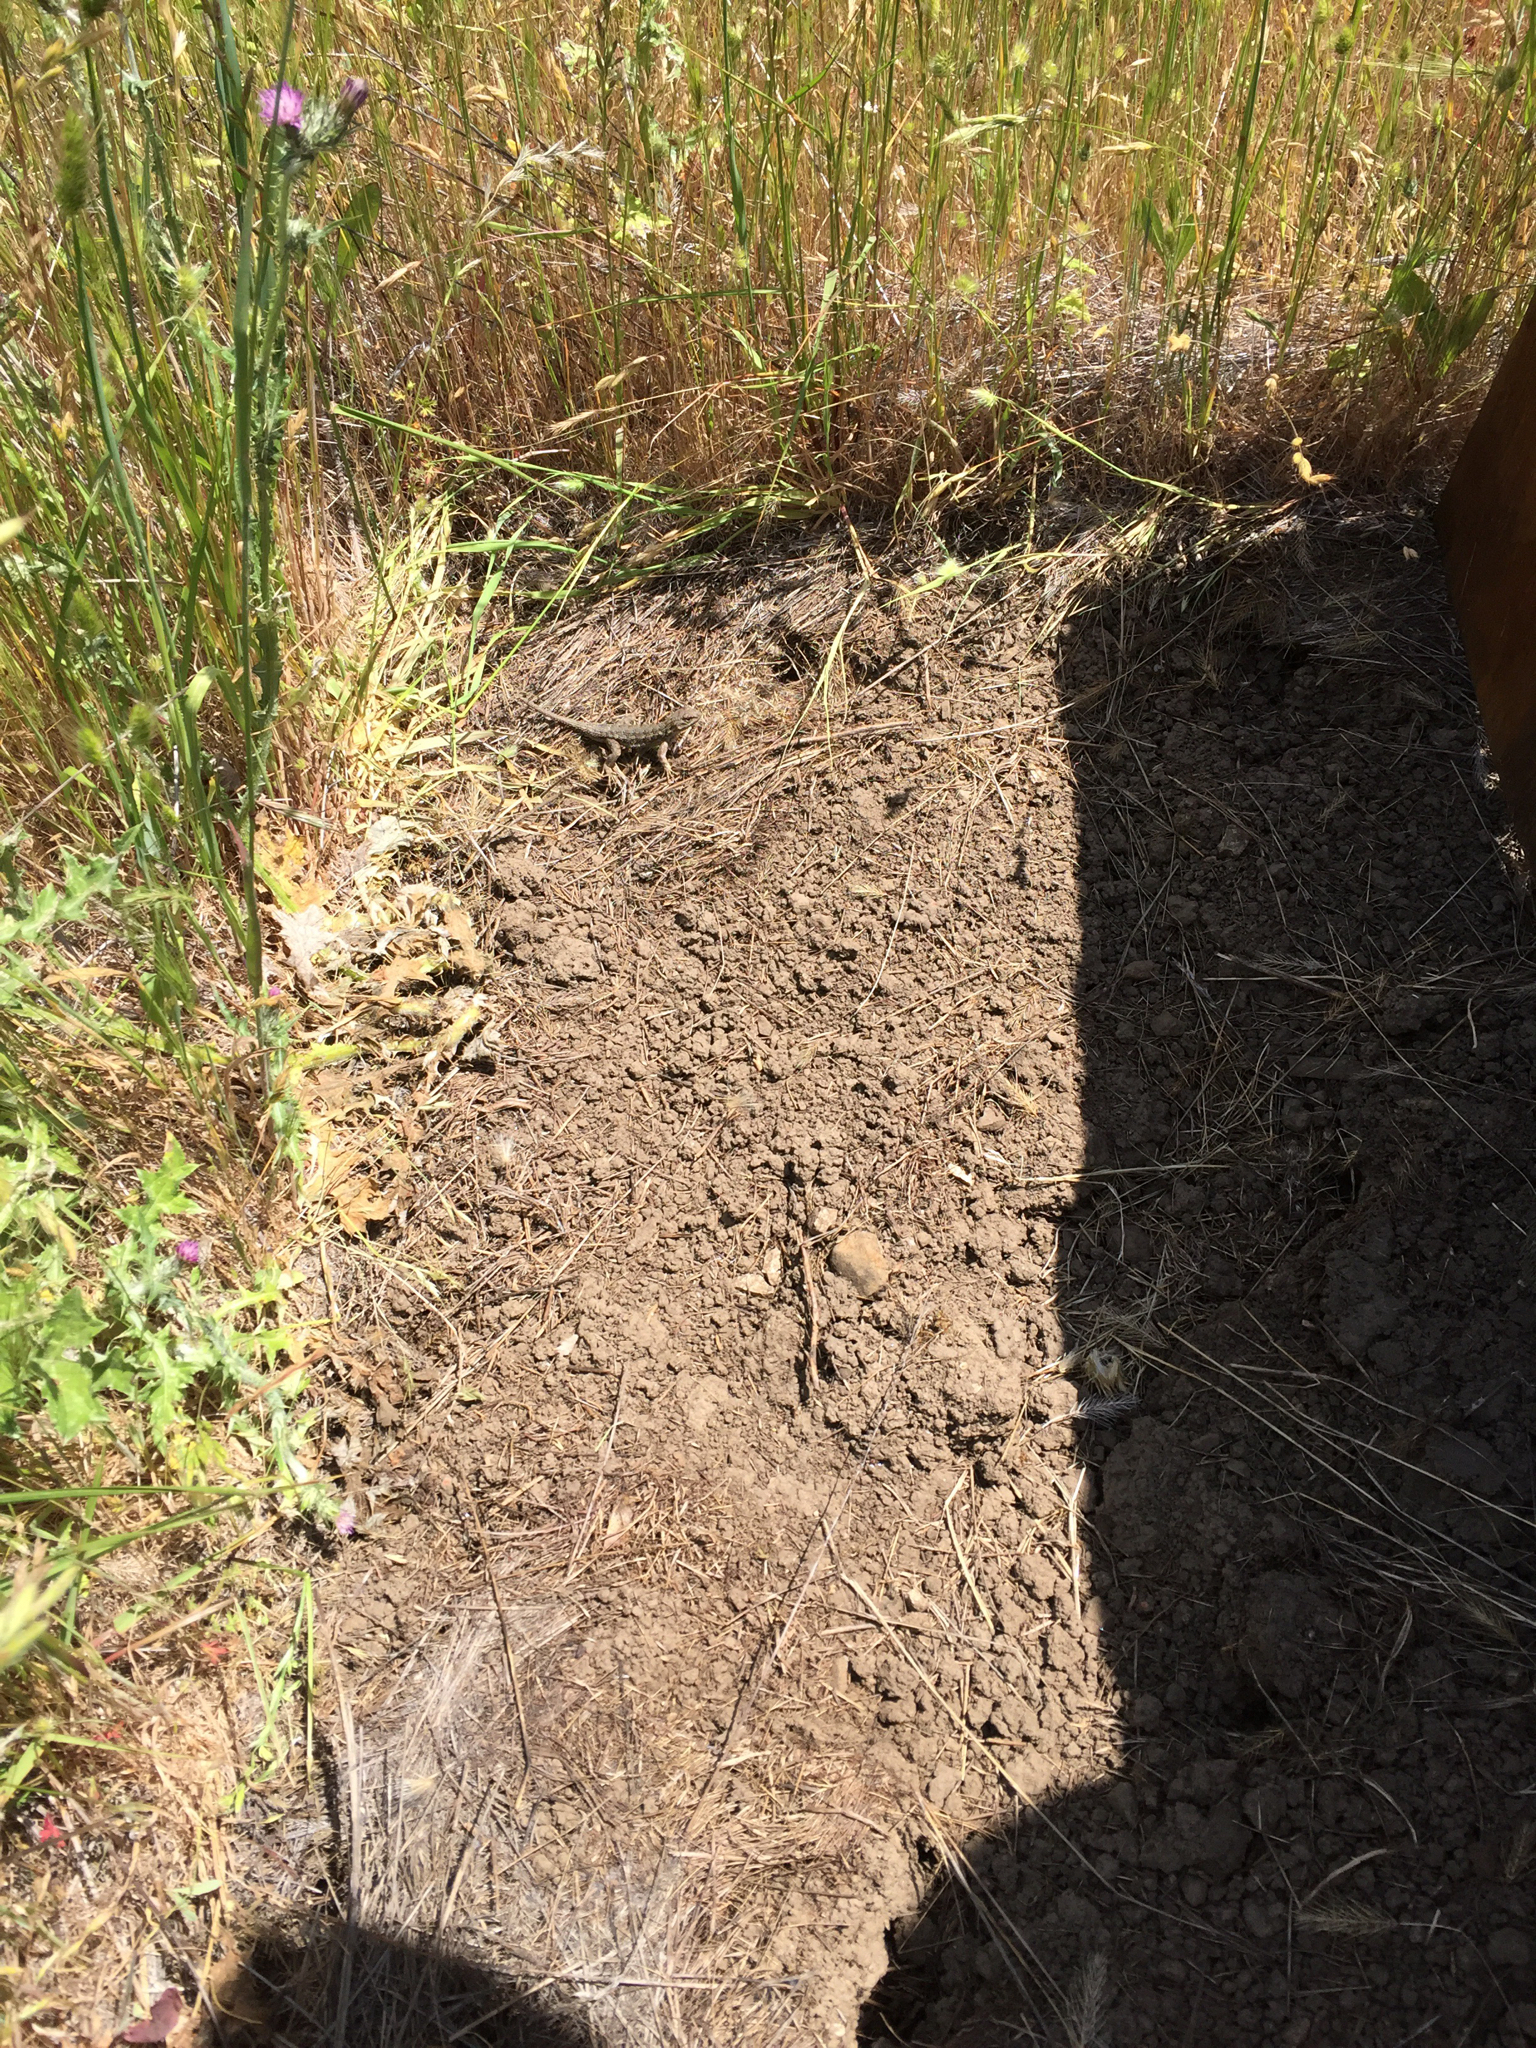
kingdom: Animalia
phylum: Chordata
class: Squamata
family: Phrynosomatidae
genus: Sceloporus
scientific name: Sceloporus occidentalis
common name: Western fence lizard
